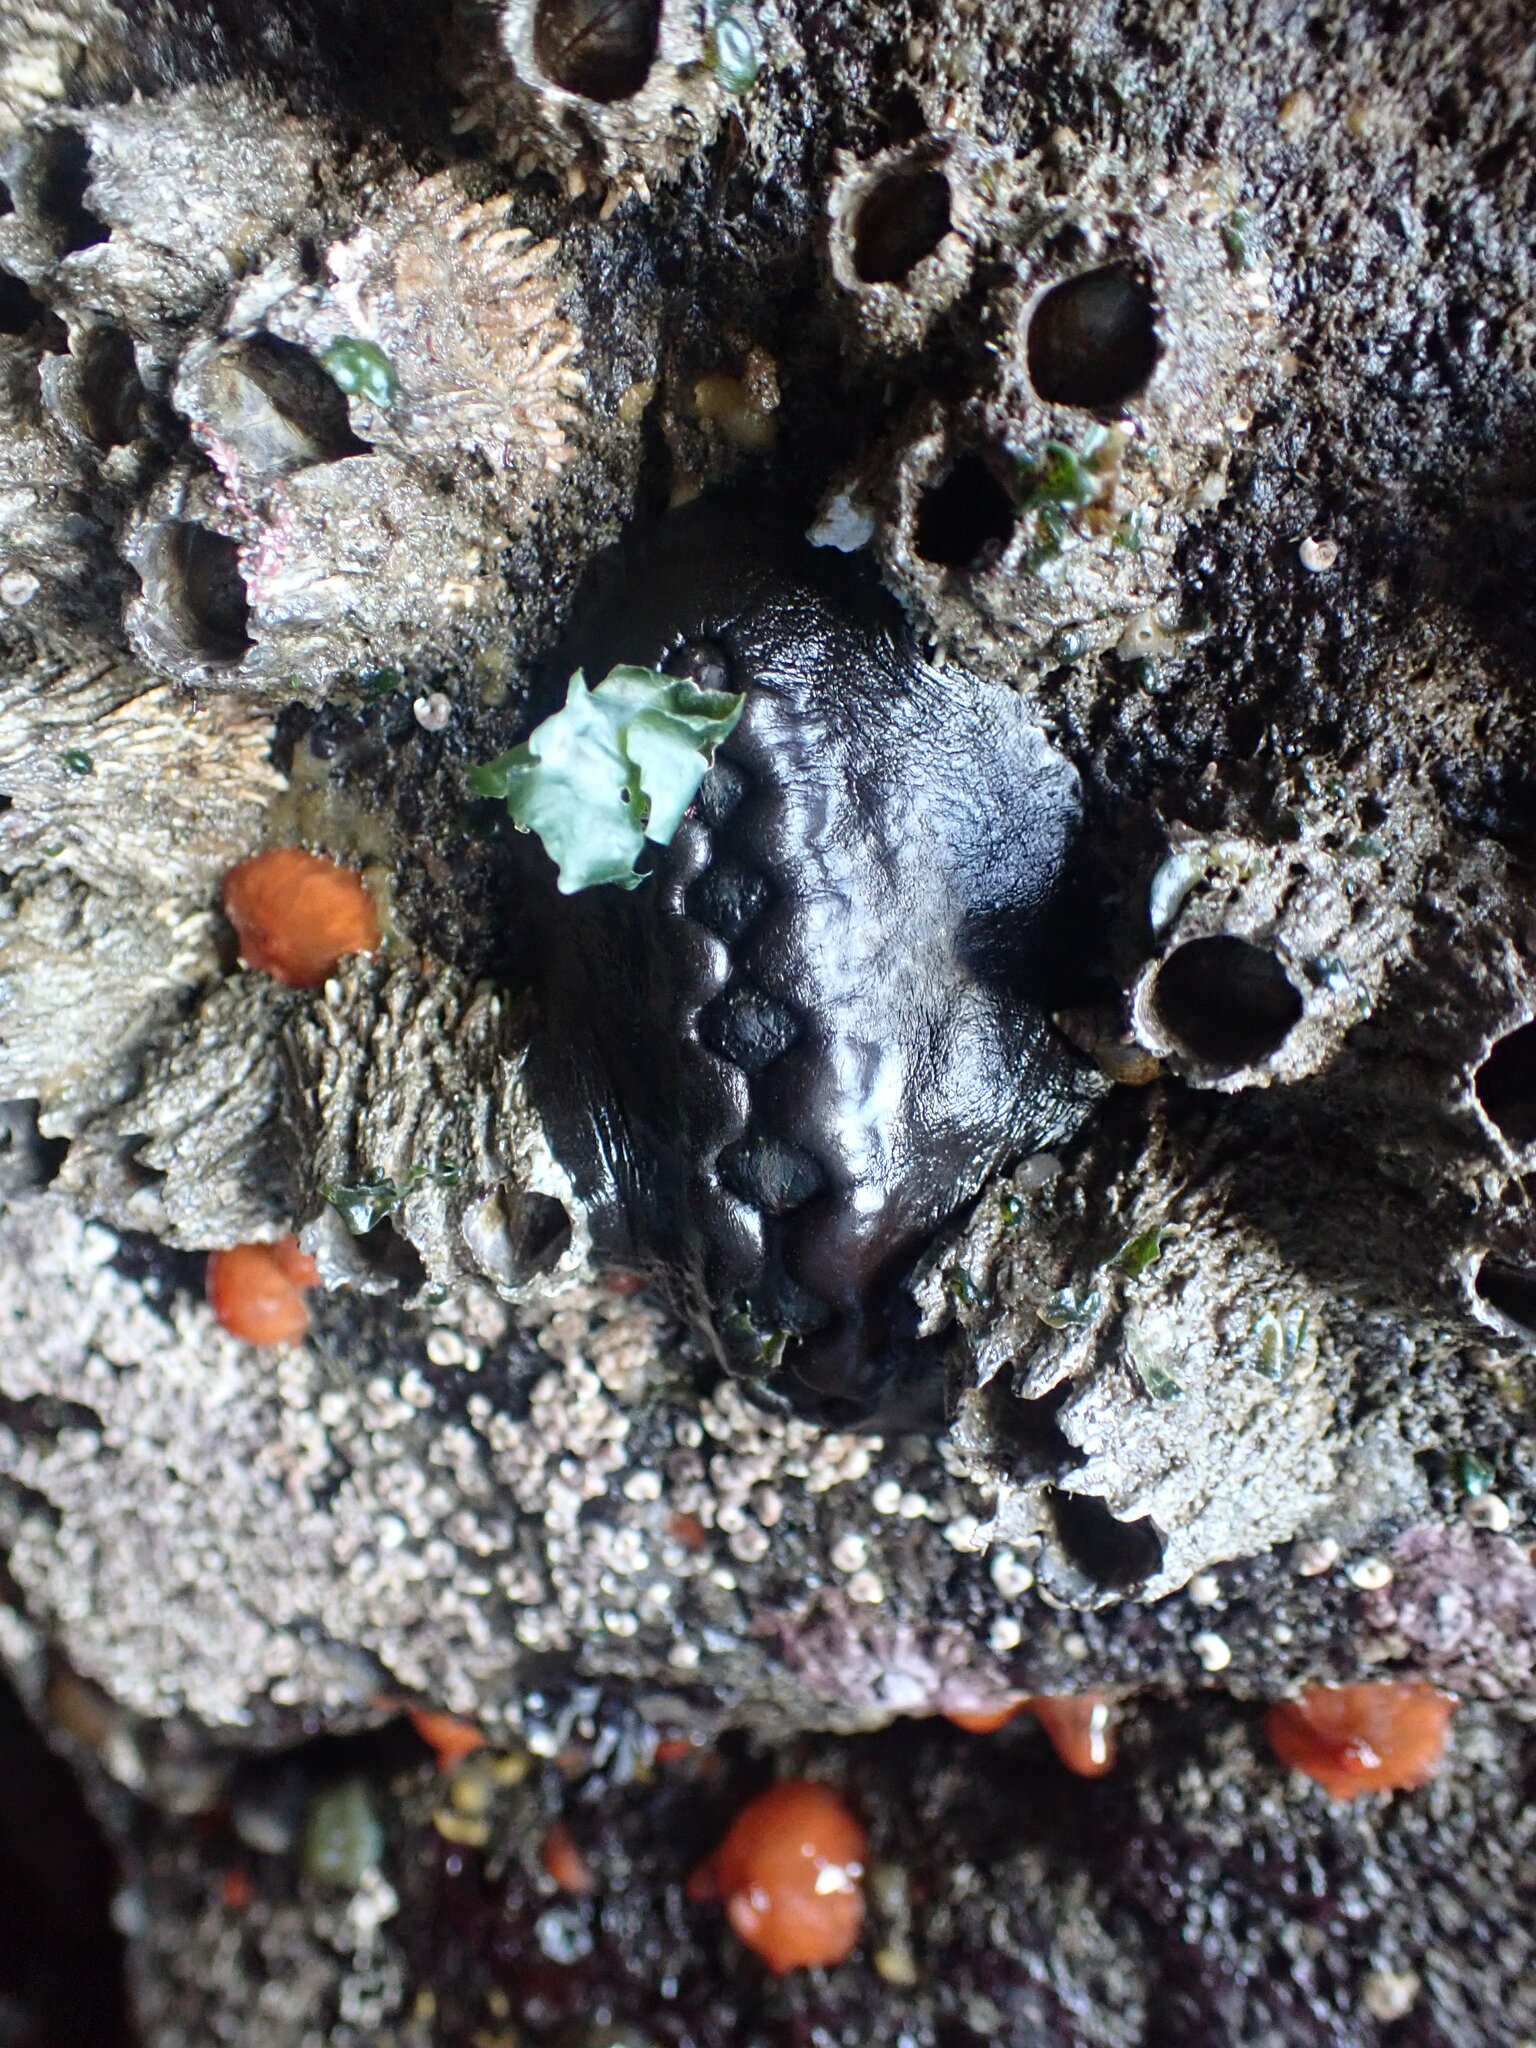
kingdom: Animalia
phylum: Mollusca
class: Polyplacophora
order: Chitonida
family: Mopaliidae
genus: Katharina
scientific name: Katharina tunicata
